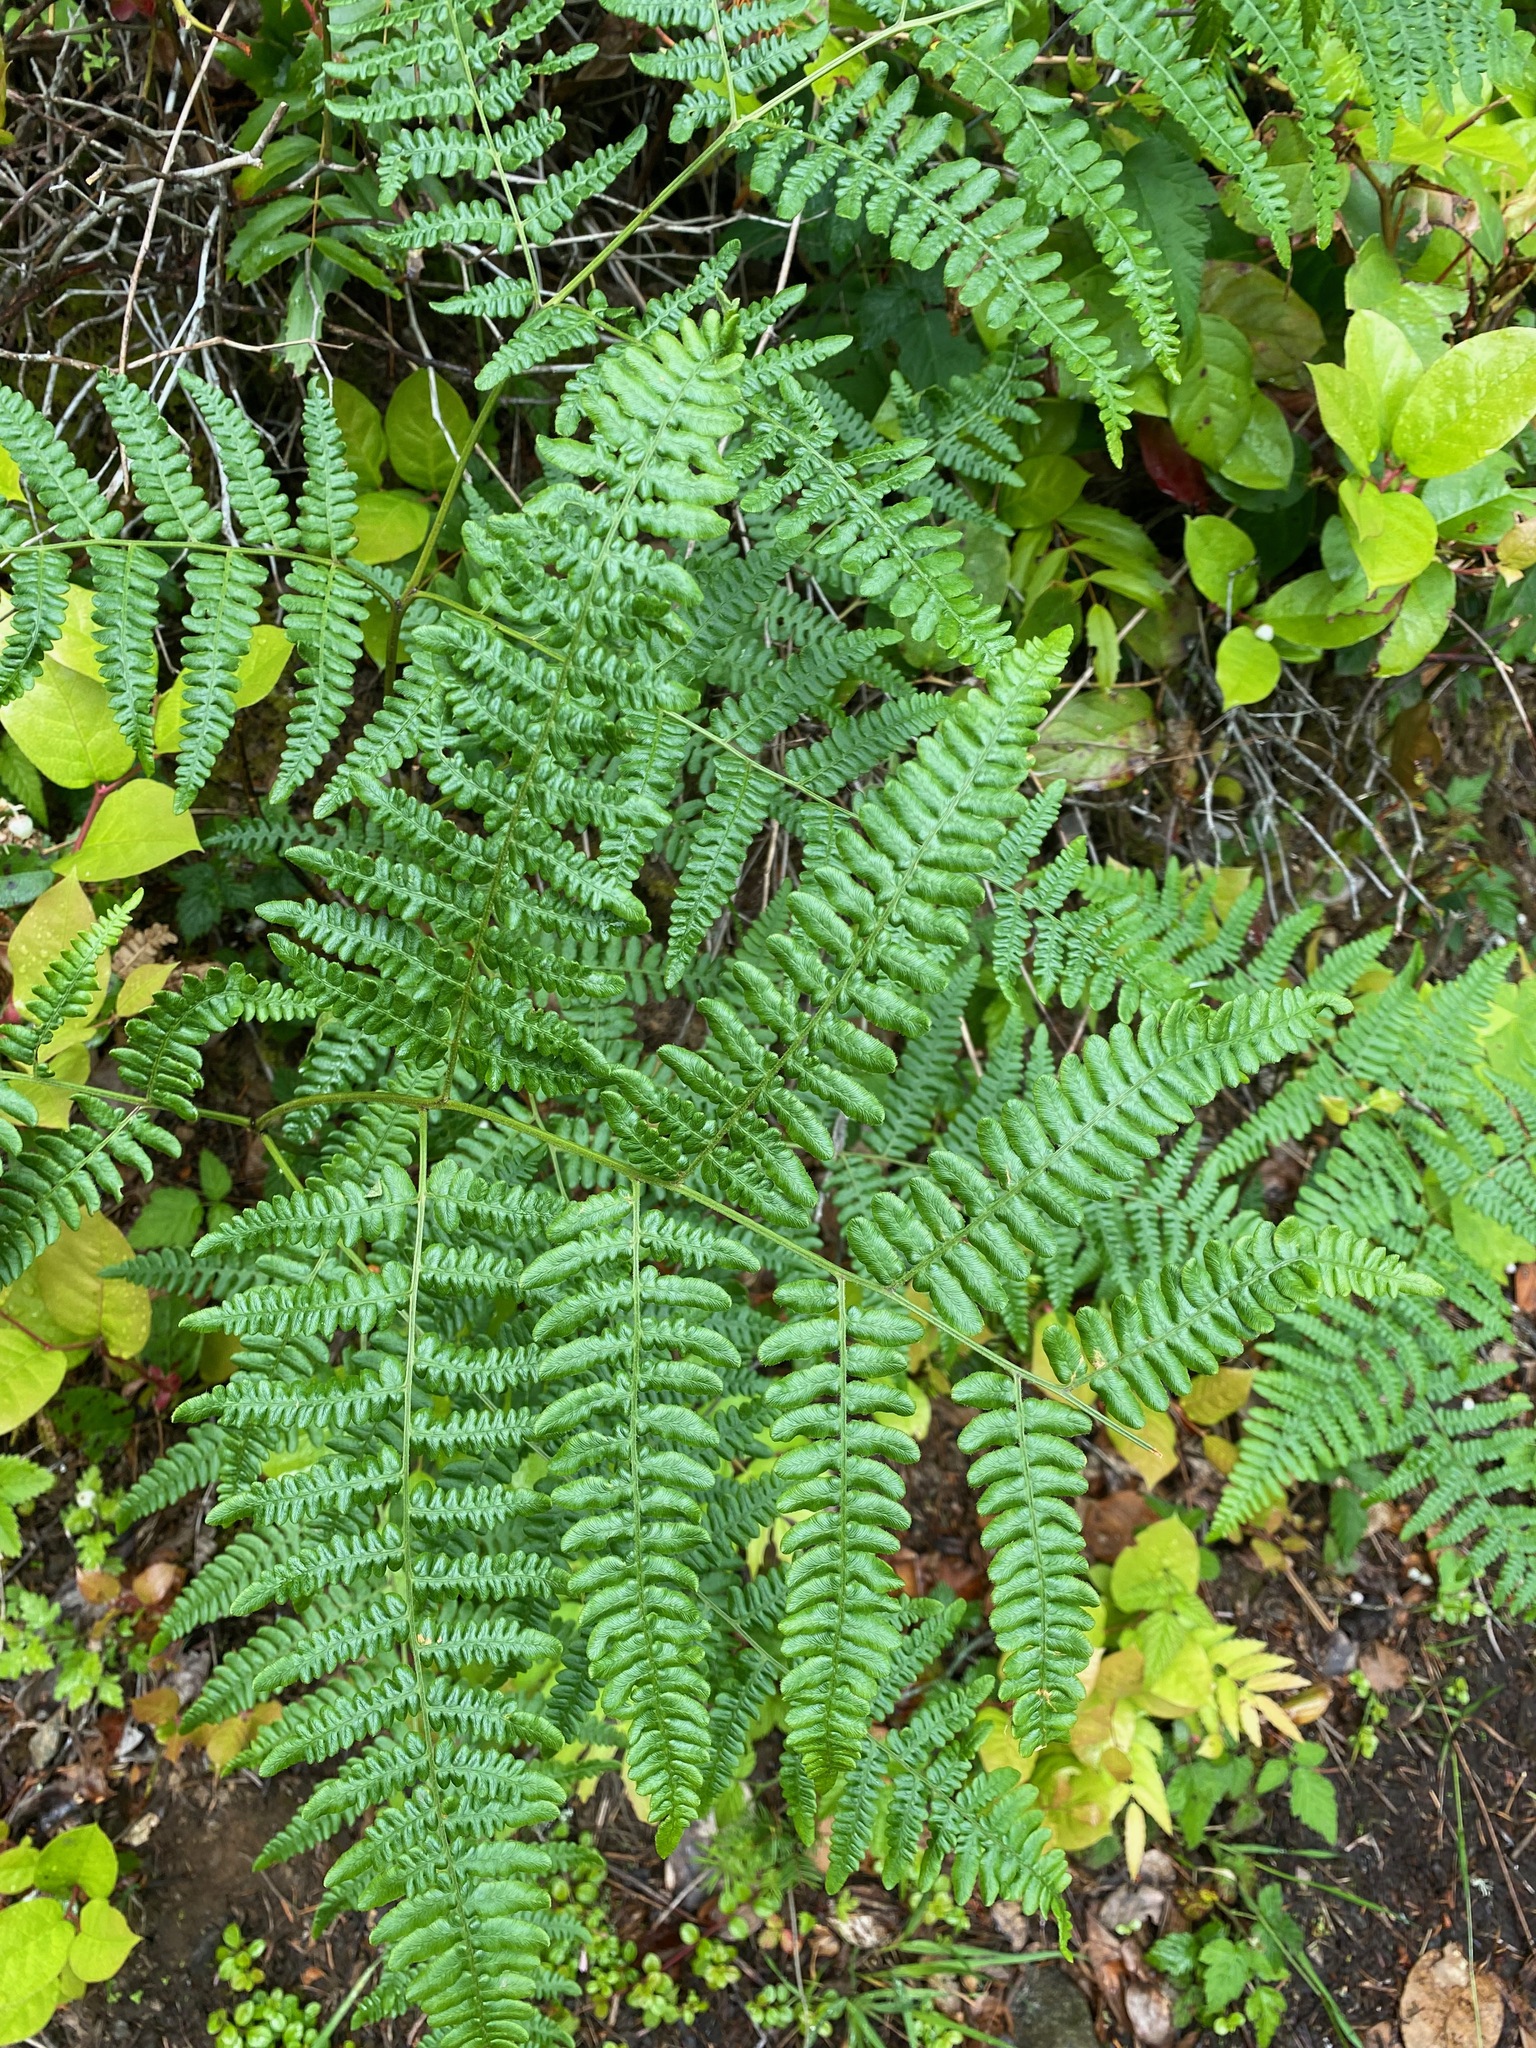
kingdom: Plantae
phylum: Tracheophyta
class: Polypodiopsida
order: Polypodiales
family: Dennstaedtiaceae
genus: Pteridium
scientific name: Pteridium aquilinum
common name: Bracken
